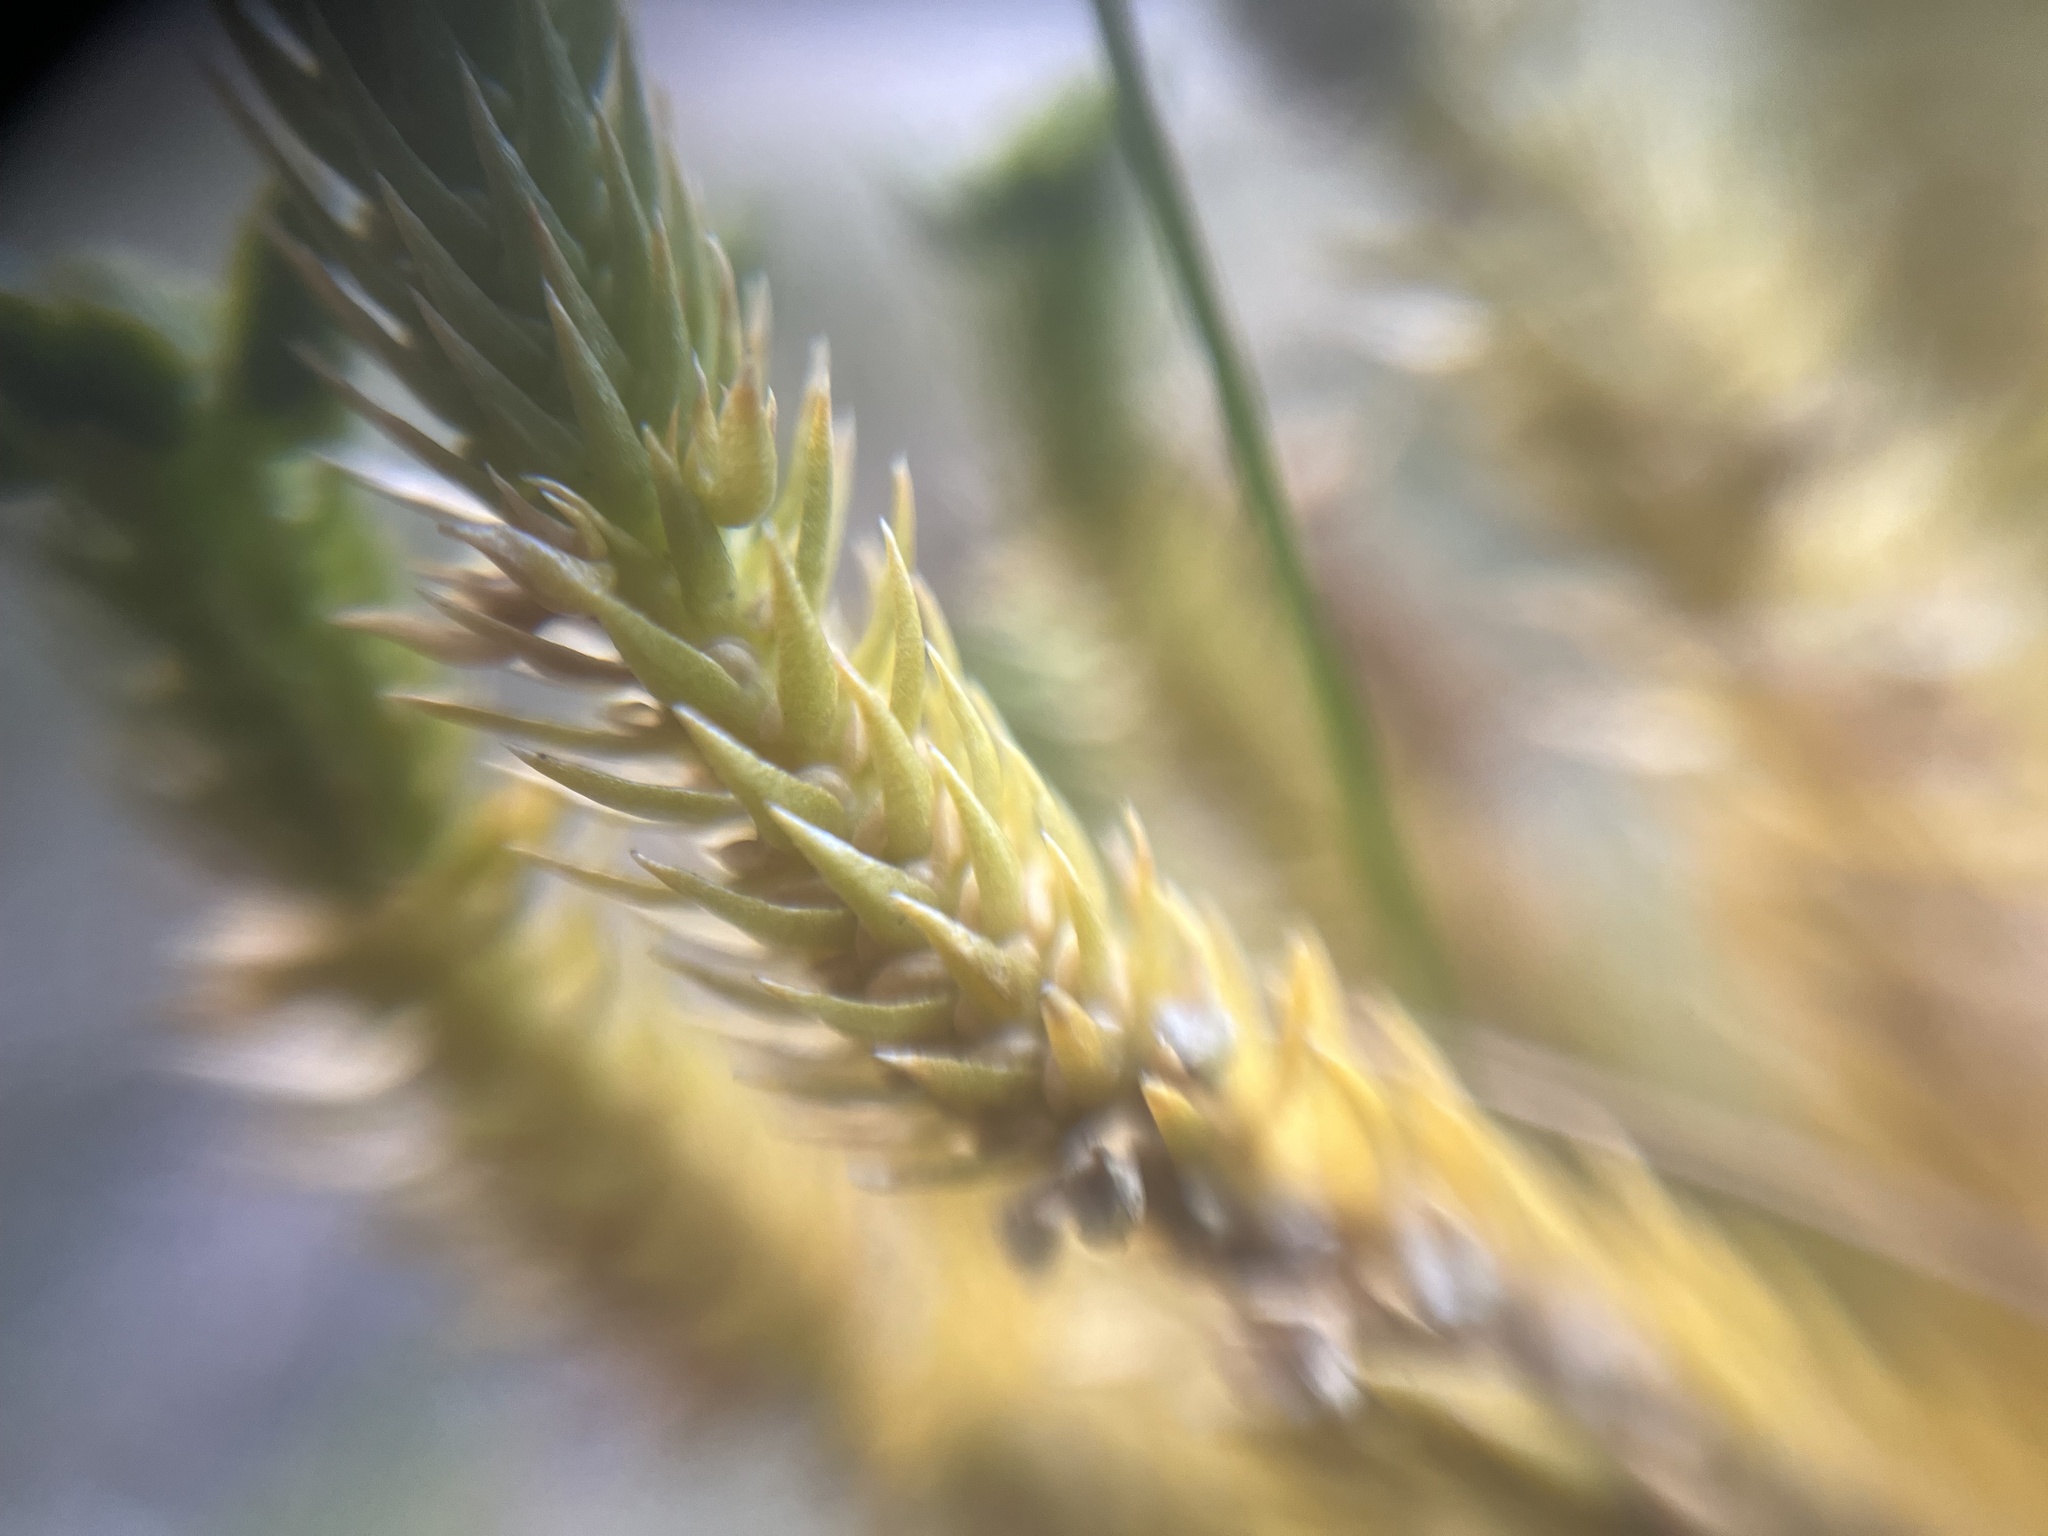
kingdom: Plantae
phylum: Tracheophyta
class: Lycopodiopsida
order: Lycopodiales
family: Lycopodiaceae
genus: Huperzia
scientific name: Huperzia selago
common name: Northern firmoss
